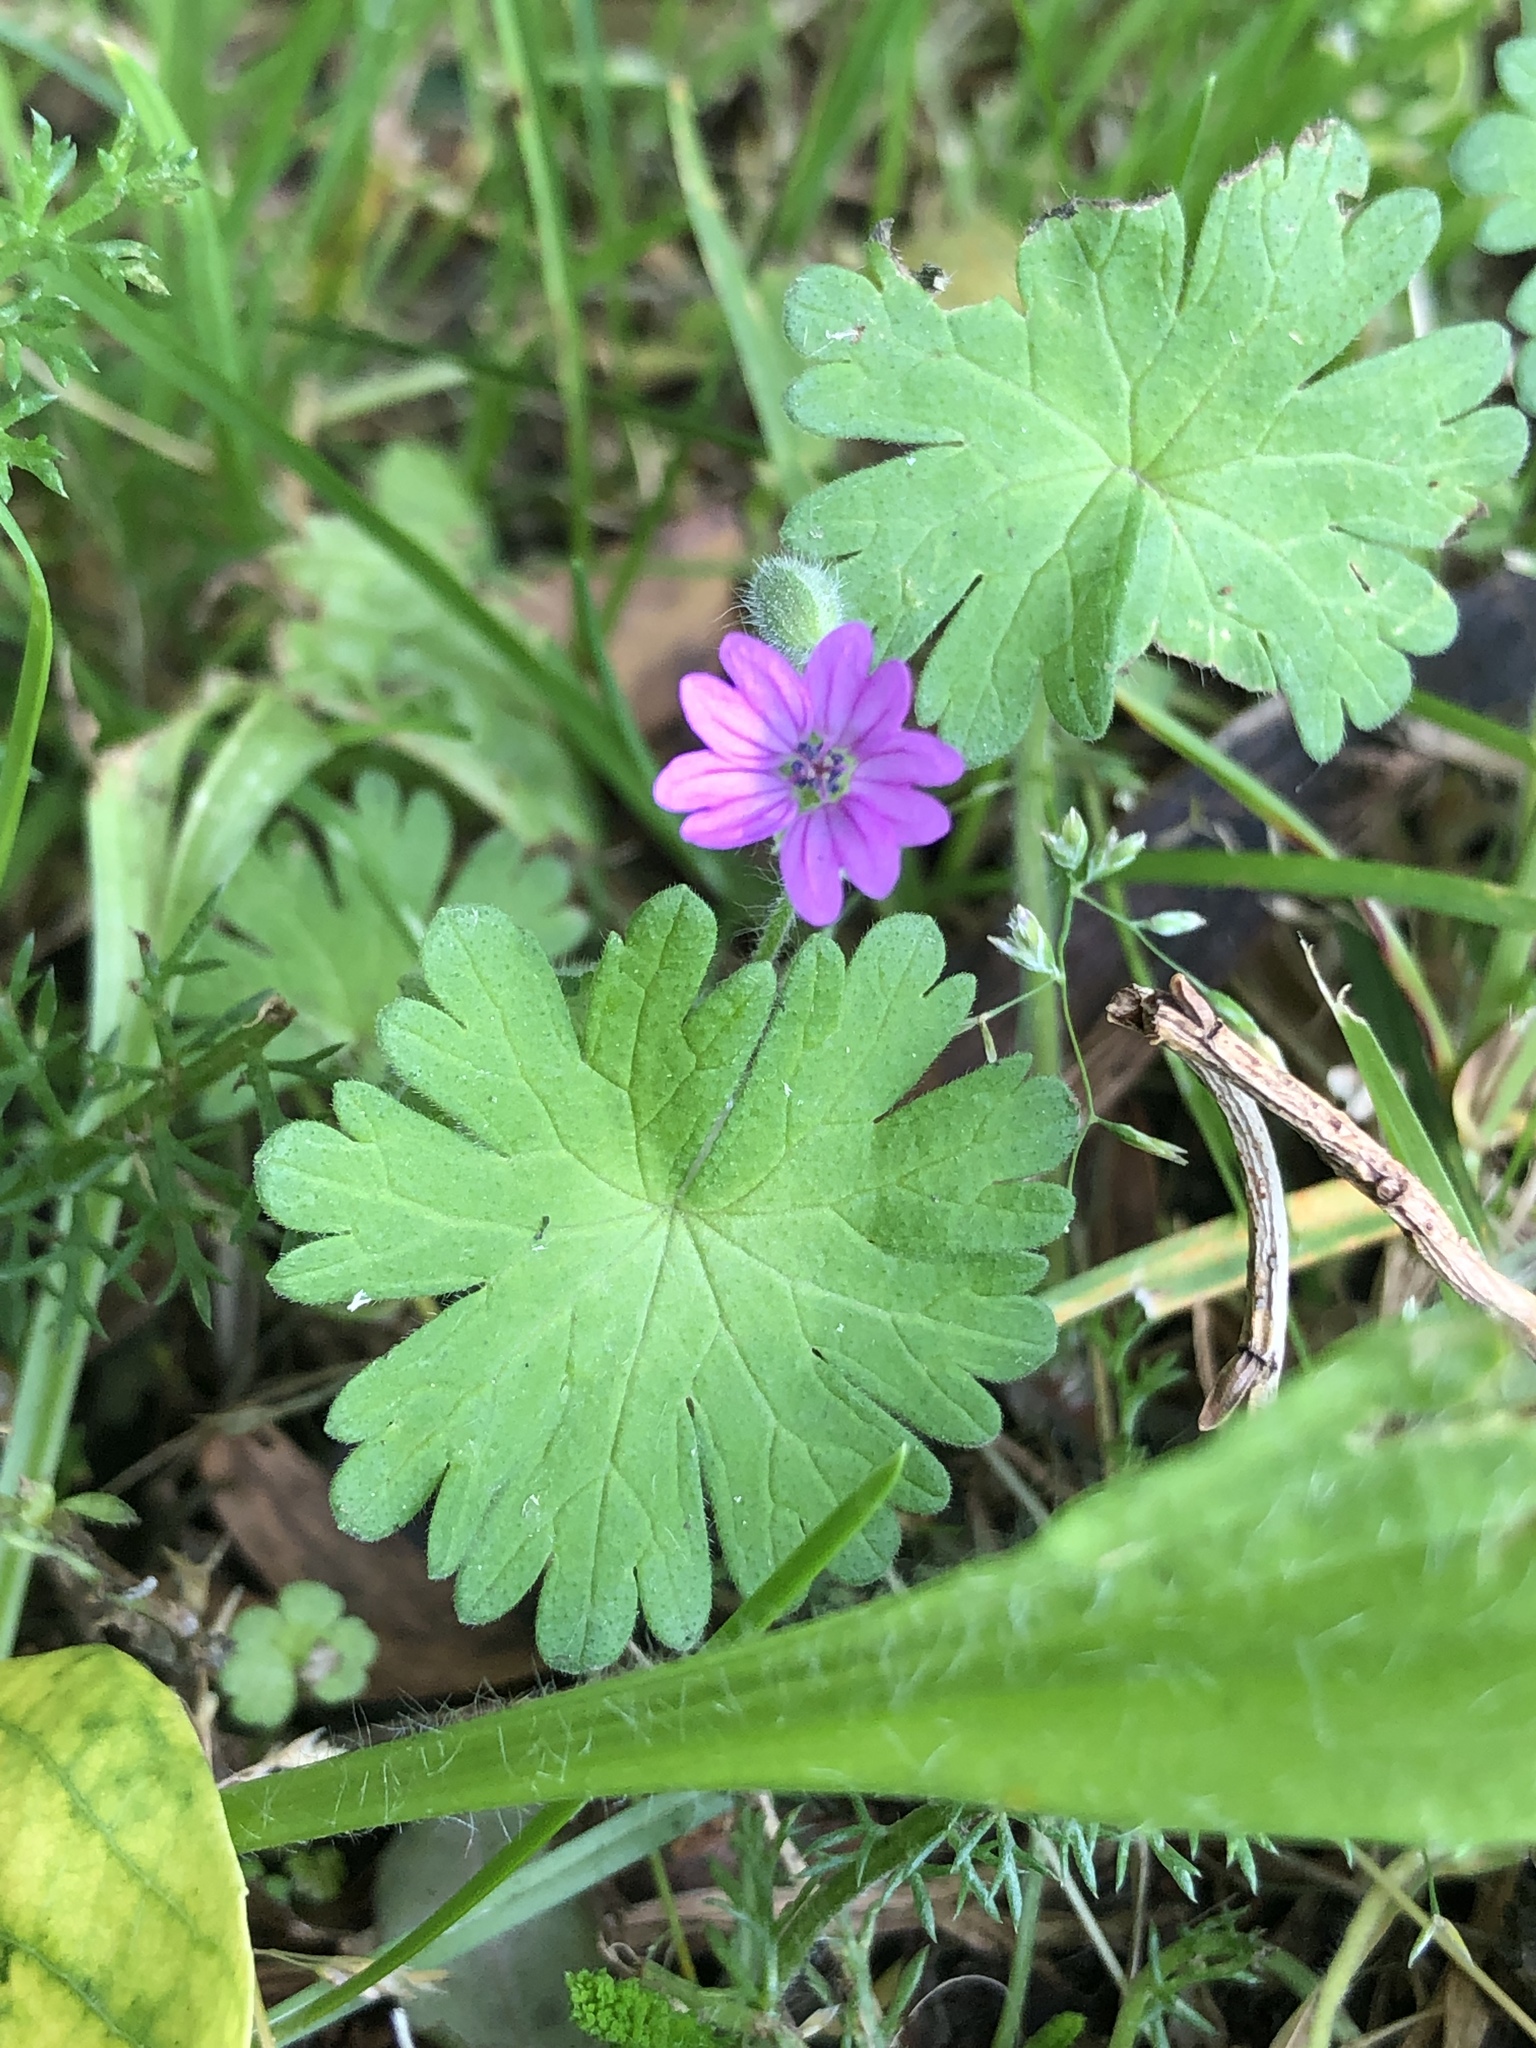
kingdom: Plantae
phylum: Tracheophyta
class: Magnoliopsida
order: Geraniales
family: Geraniaceae
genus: Geranium
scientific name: Geranium molle
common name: Dove's-foot crane's-bill
